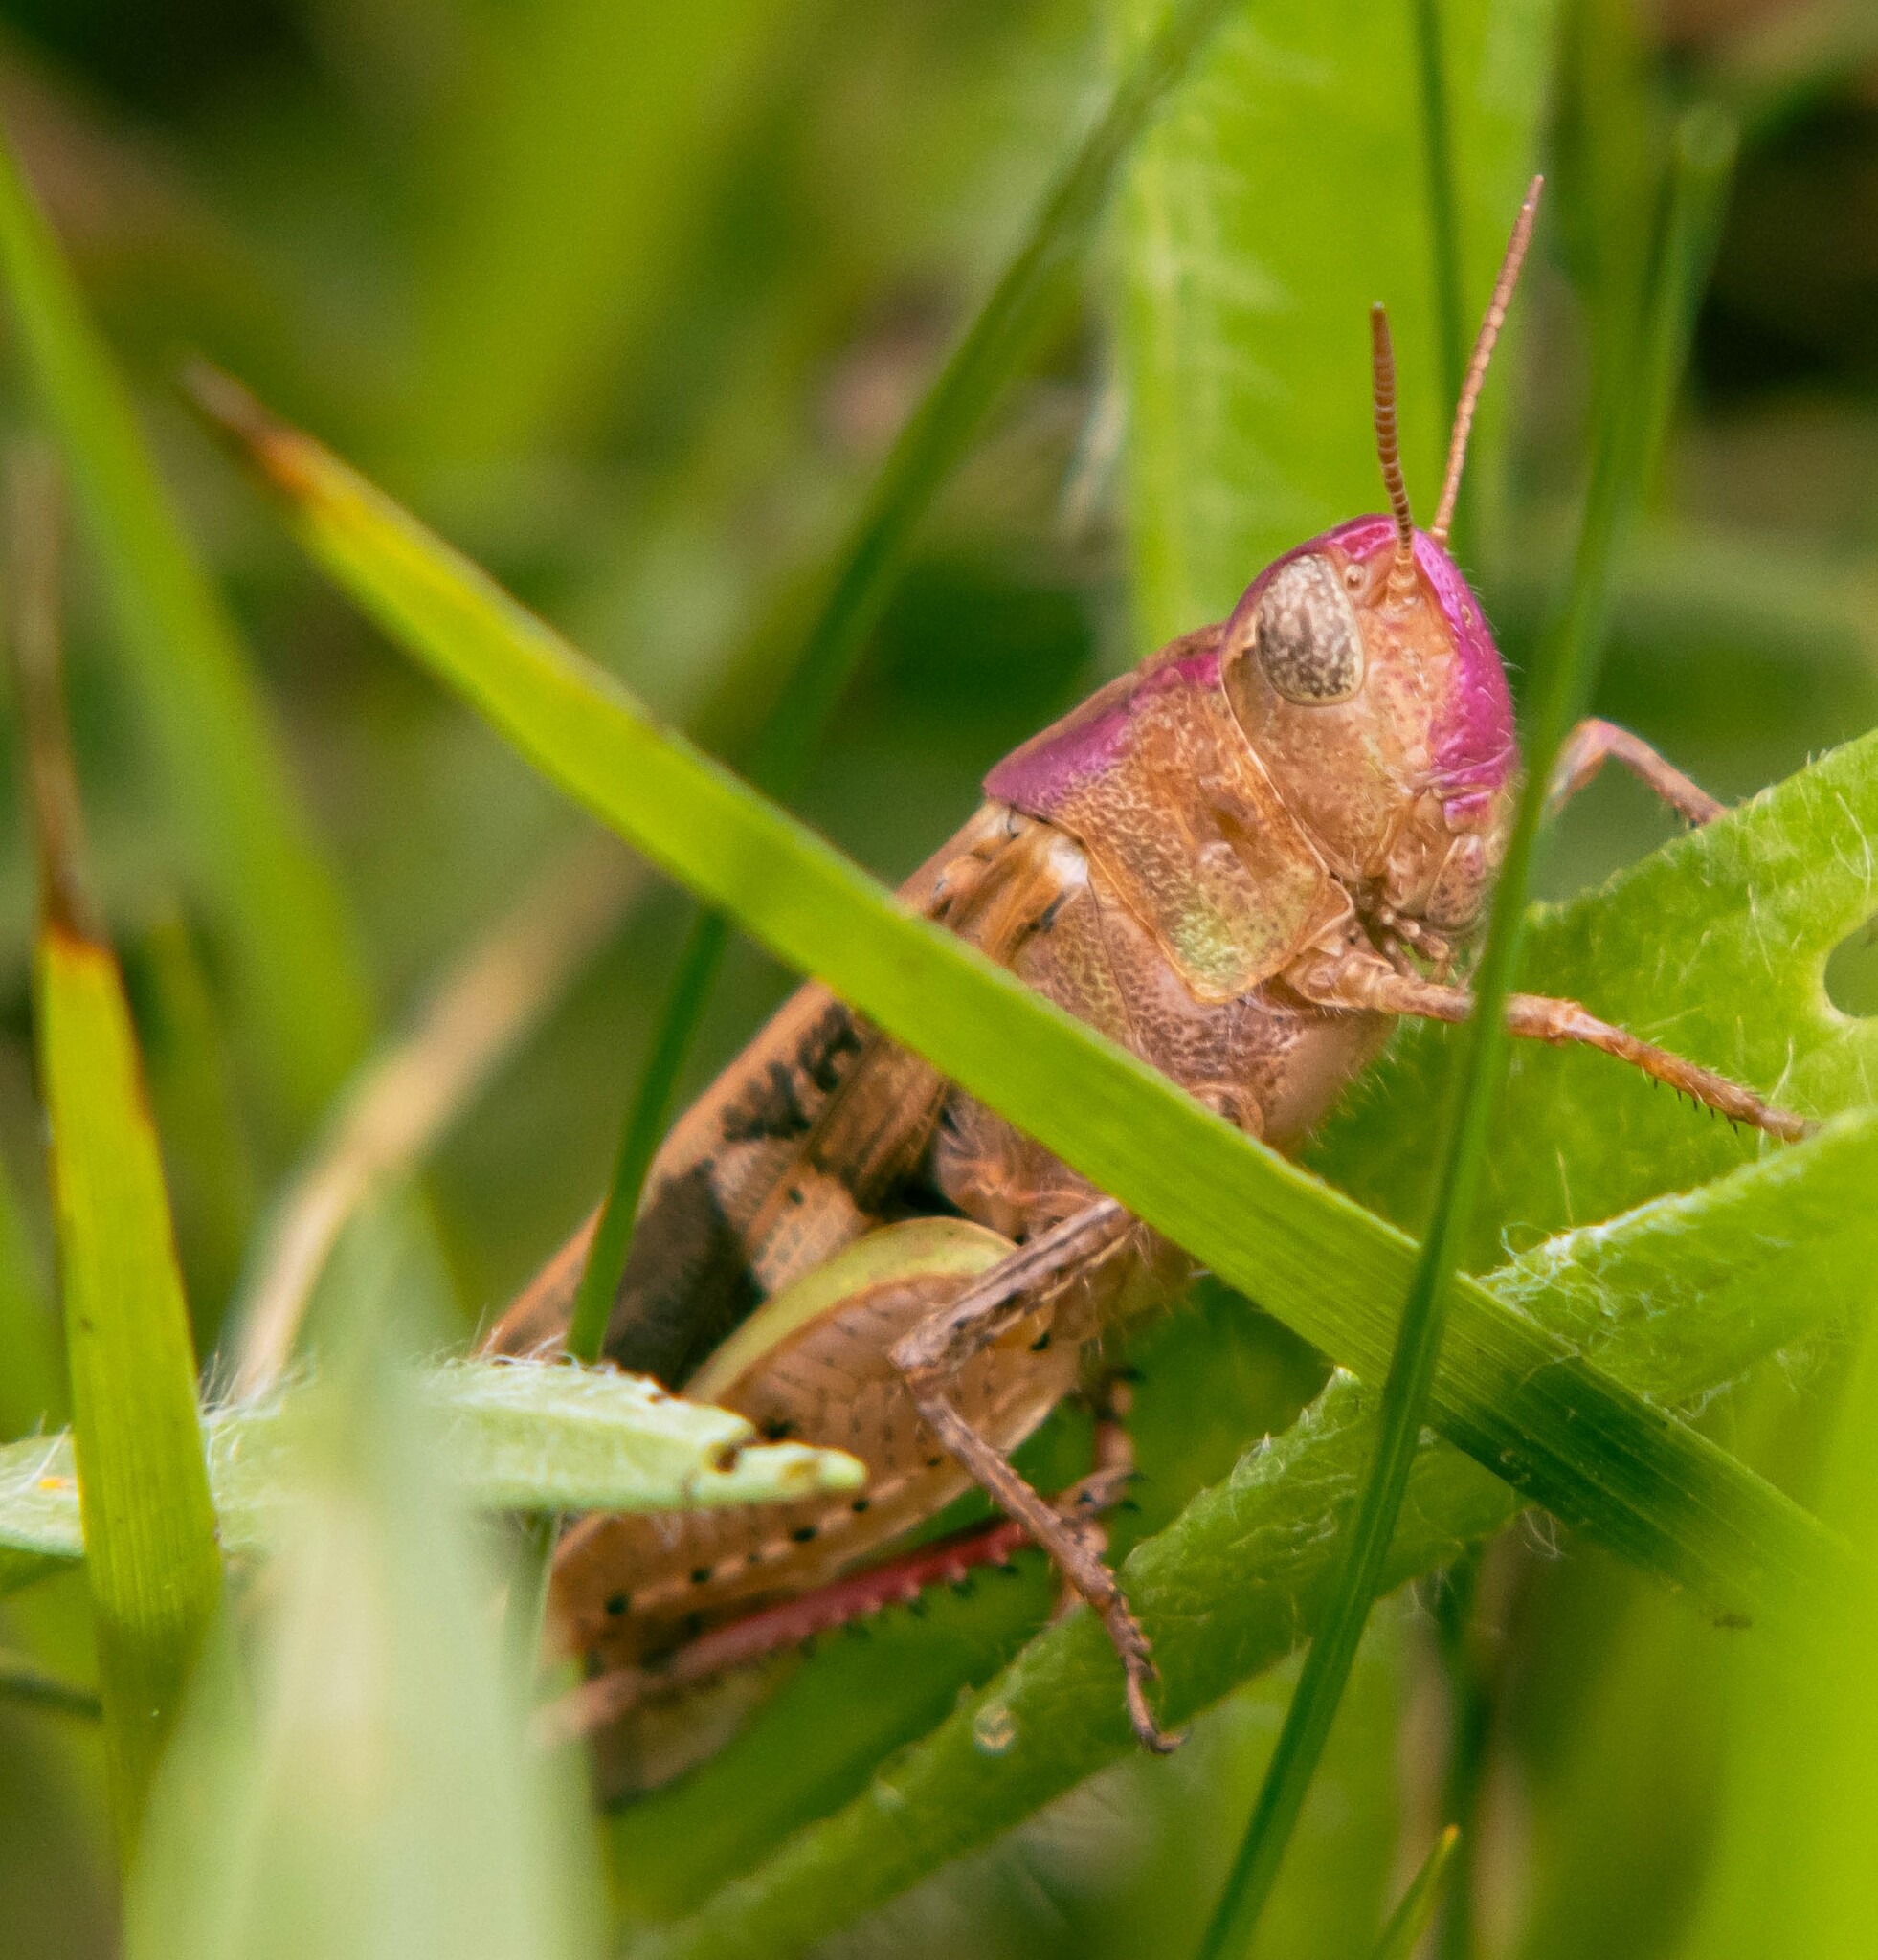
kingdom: Animalia
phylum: Arthropoda
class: Insecta
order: Orthoptera
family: Acrididae
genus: Aiolopus
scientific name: Aiolopus strepens
